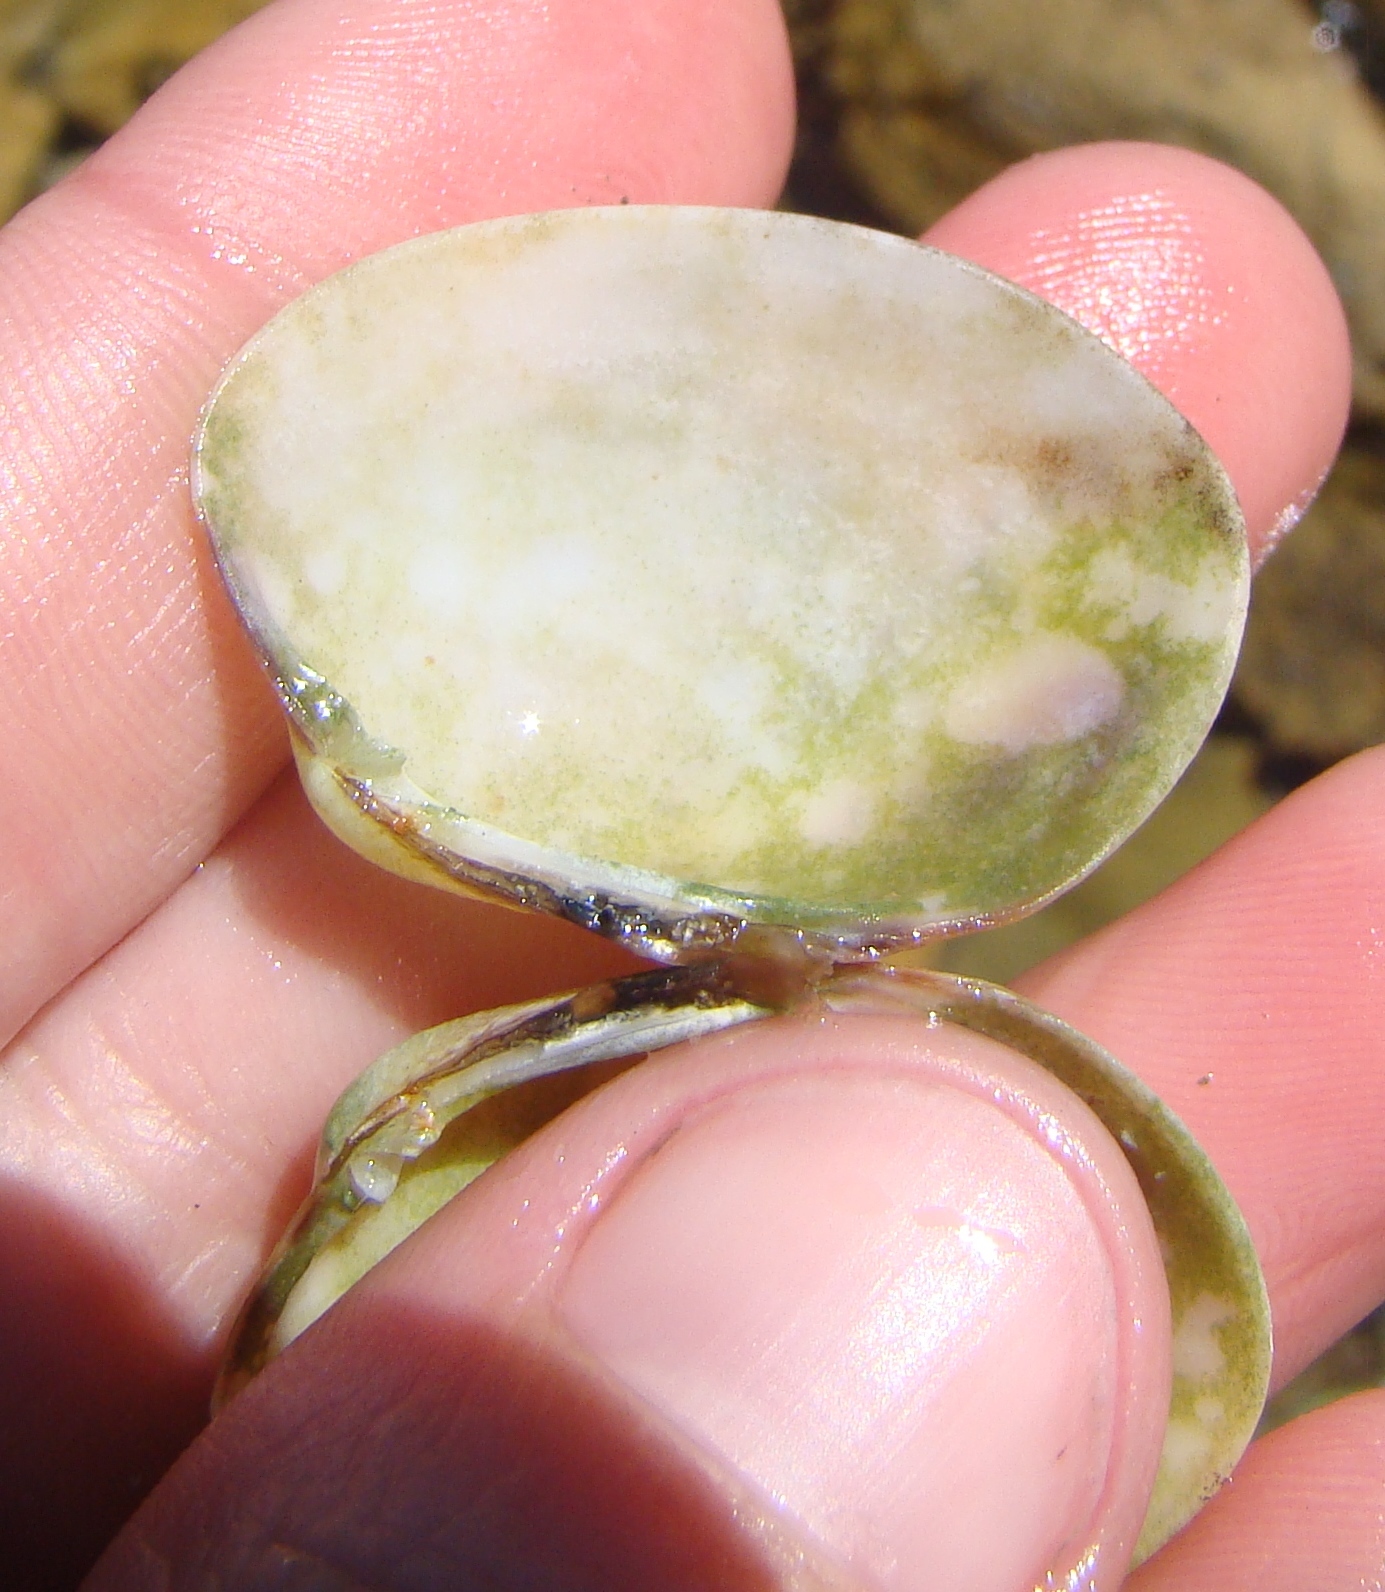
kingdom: Animalia
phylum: Mollusca
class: Bivalvia
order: Venerida
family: Veneridae
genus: Venerupis
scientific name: Venerupis largillierti
